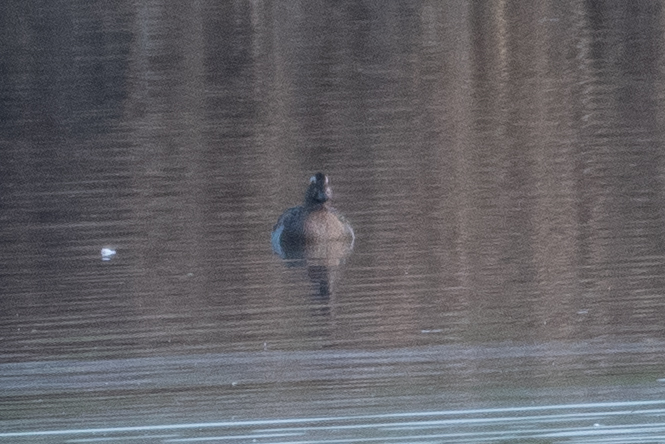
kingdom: Animalia
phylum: Chordata
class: Aves
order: Anseriformes
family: Anatidae
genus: Spatula
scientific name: Spatula querquedula
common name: Garganey
